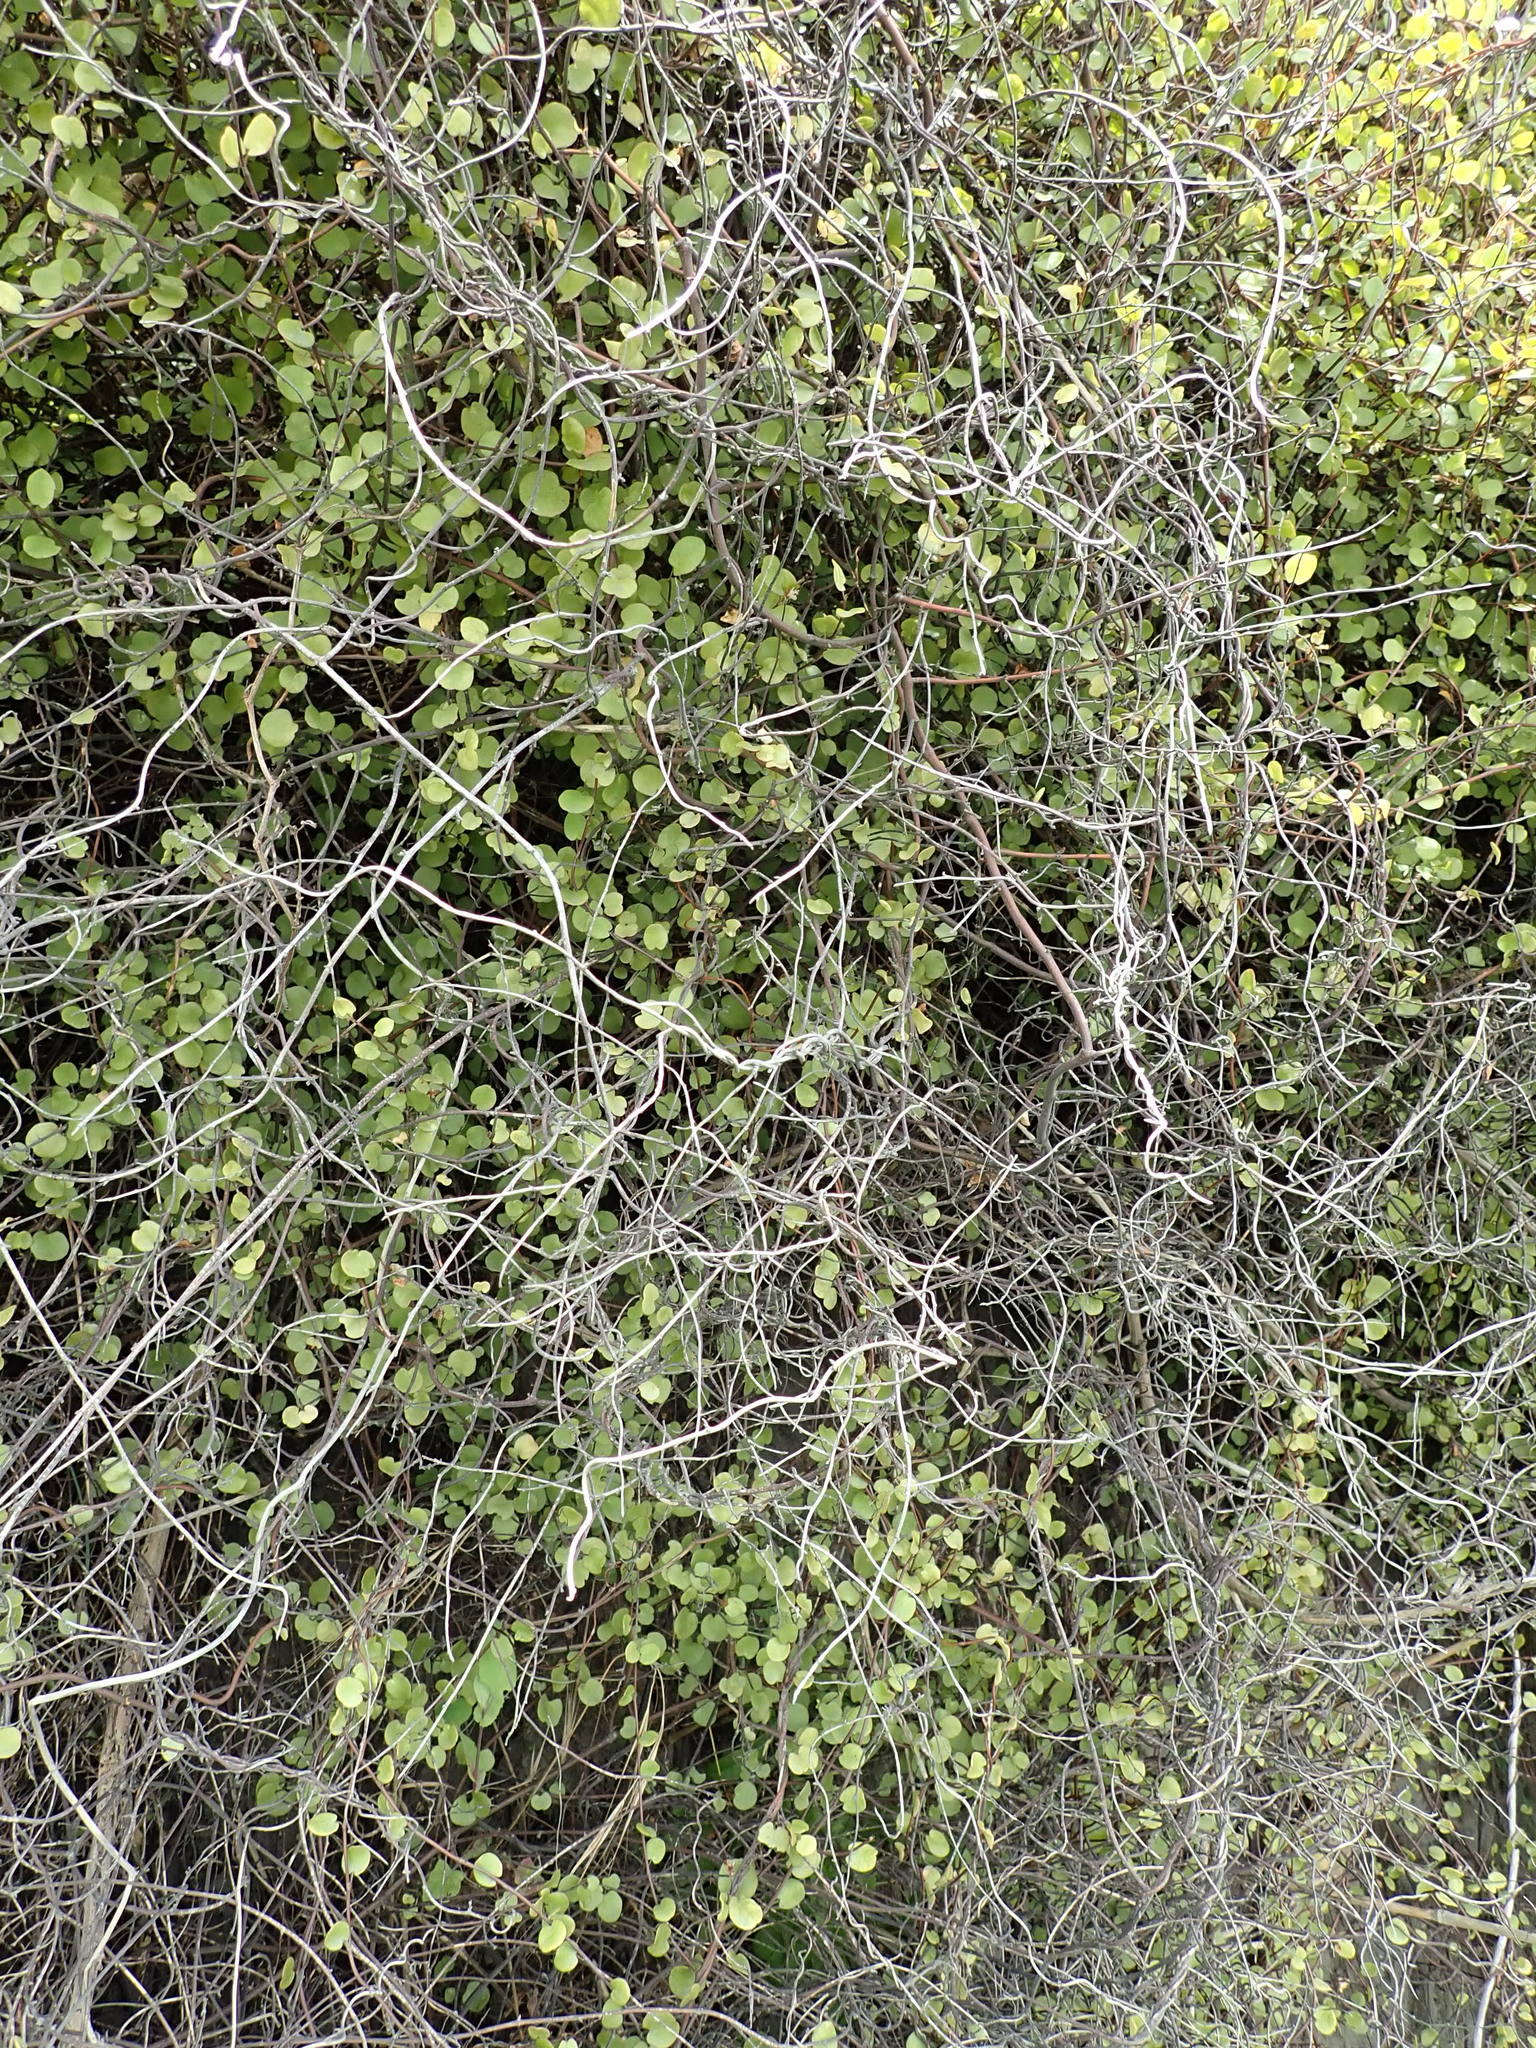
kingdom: Plantae
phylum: Tracheophyta
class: Magnoliopsida
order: Caryophyllales
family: Polygonaceae
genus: Muehlenbeckia
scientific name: Muehlenbeckia complexa
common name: Wireplant
